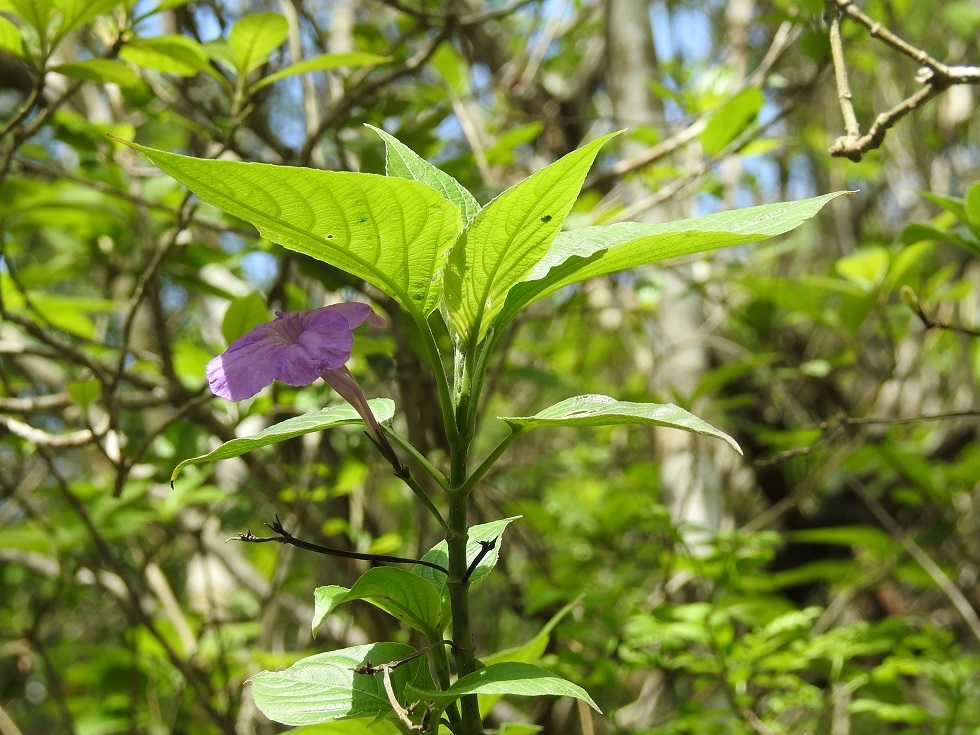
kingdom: Plantae
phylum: Tracheophyta
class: Magnoliopsida
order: Lamiales
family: Acanthaceae
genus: Ruellia
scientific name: Ruellia breedlovei
